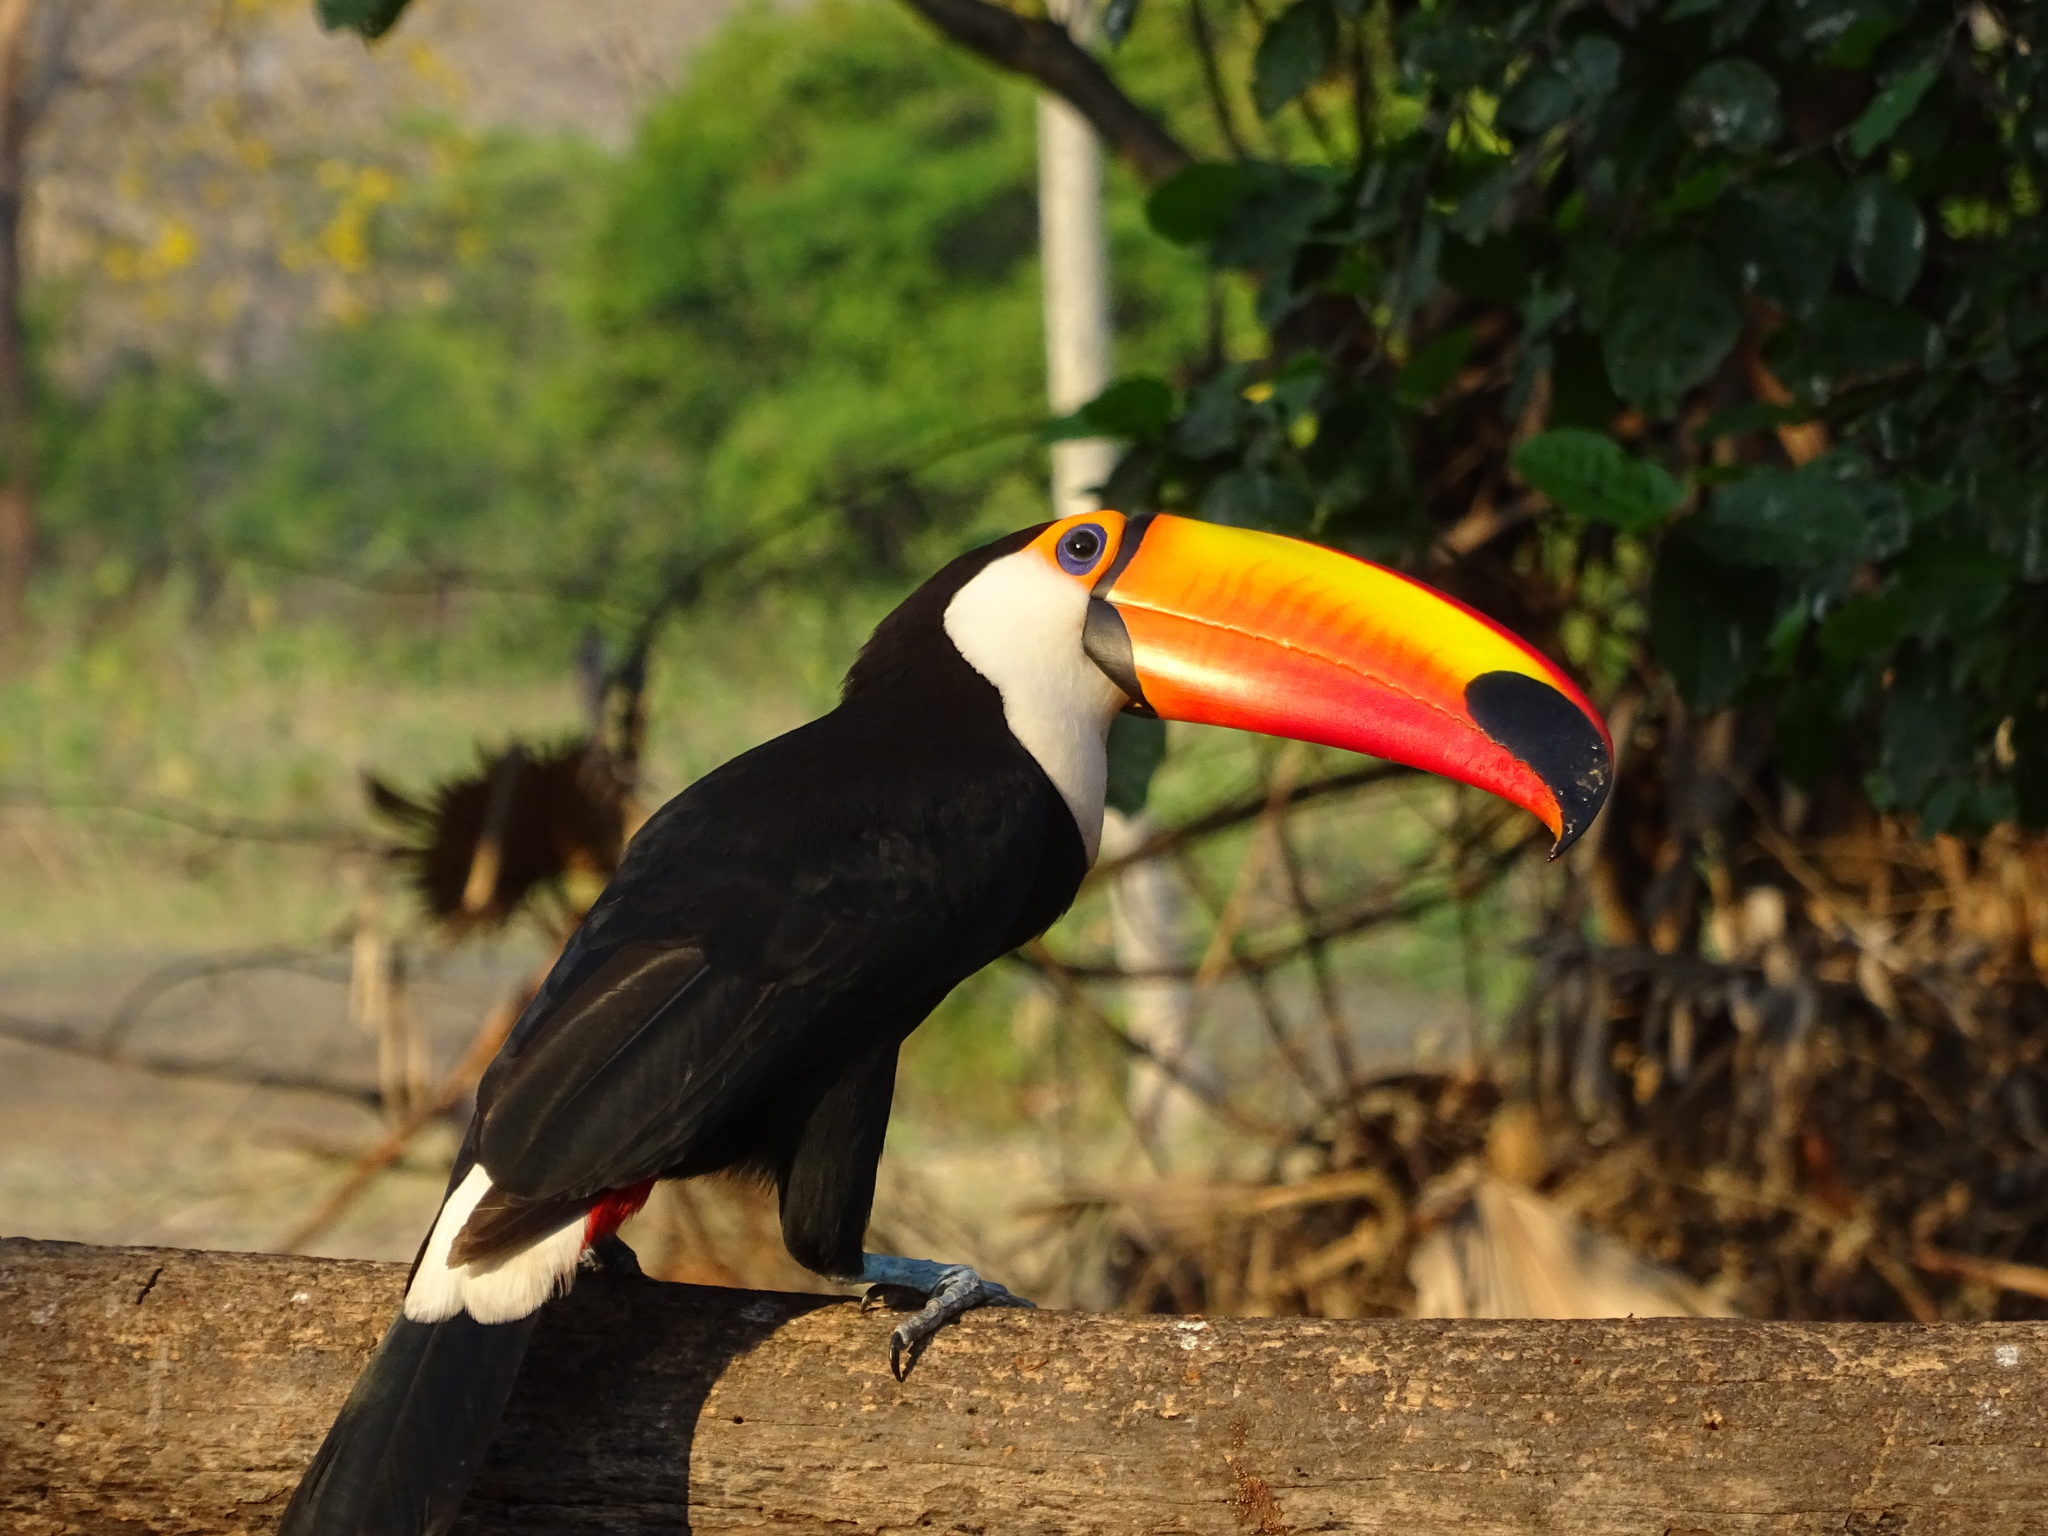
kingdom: Animalia
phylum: Chordata
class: Aves
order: Piciformes
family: Ramphastidae
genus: Ramphastos
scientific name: Ramphastos toco
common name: Toco toucan
